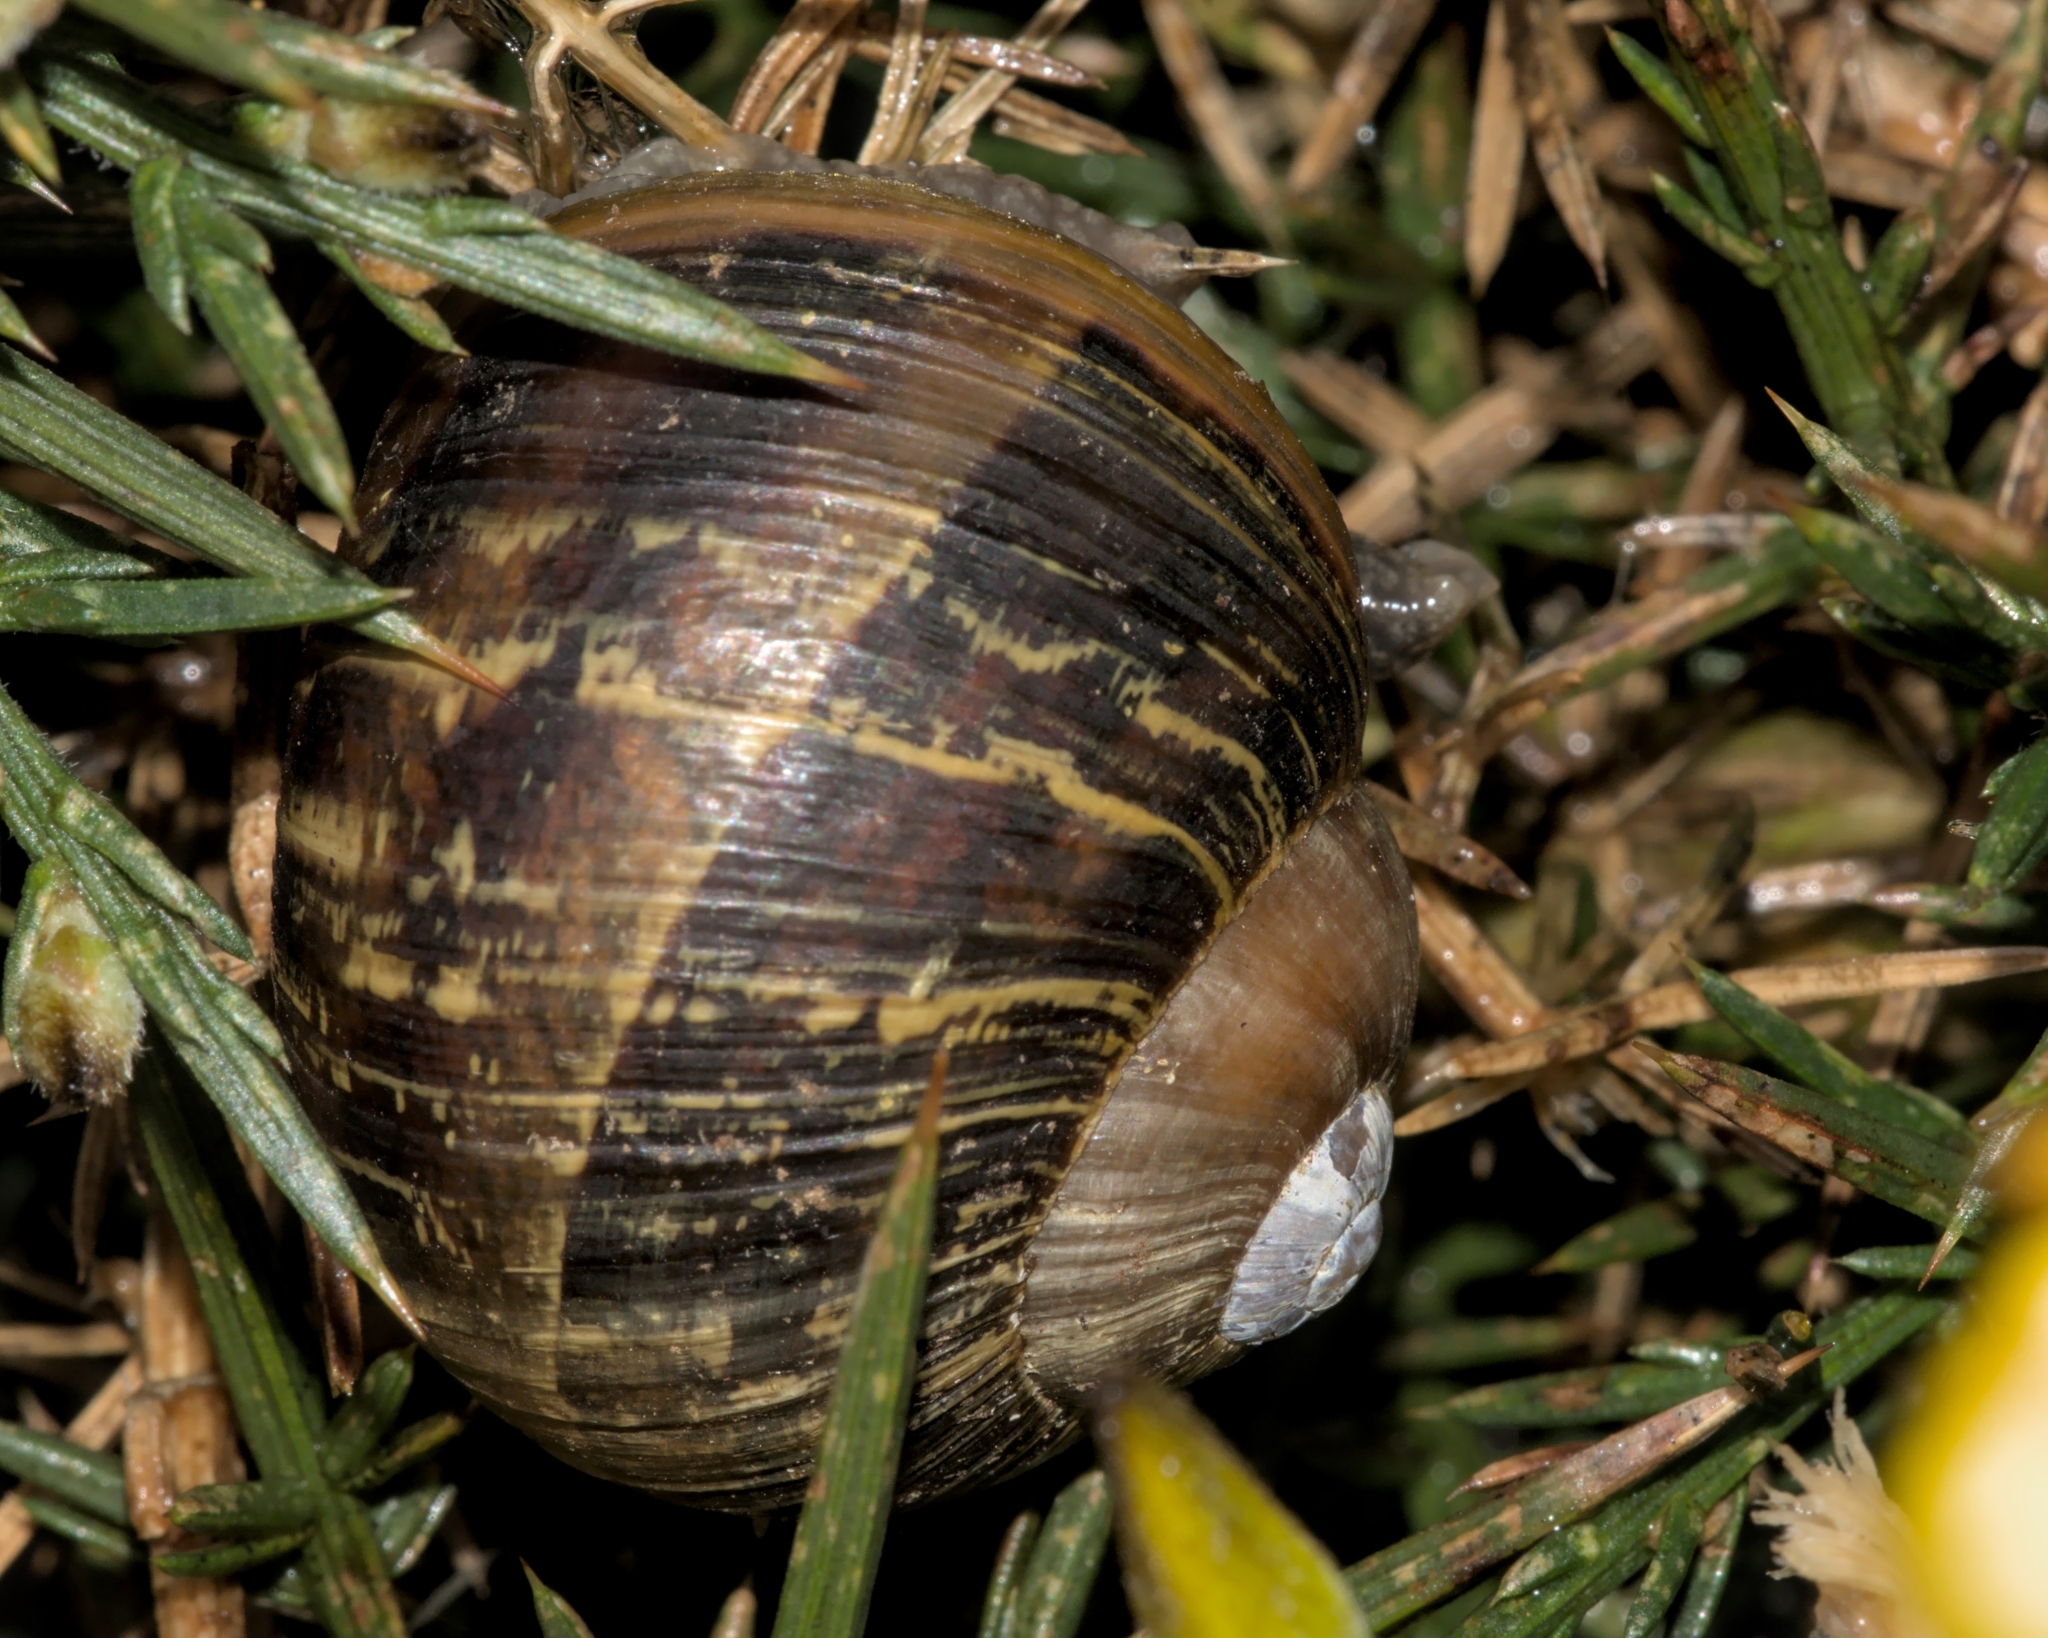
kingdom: Animalia
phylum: Mollusca
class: Gastropoda
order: Stylommatophora
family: Helicidae
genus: Cornu
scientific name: Cornu aspersum
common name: Brown garden snail
